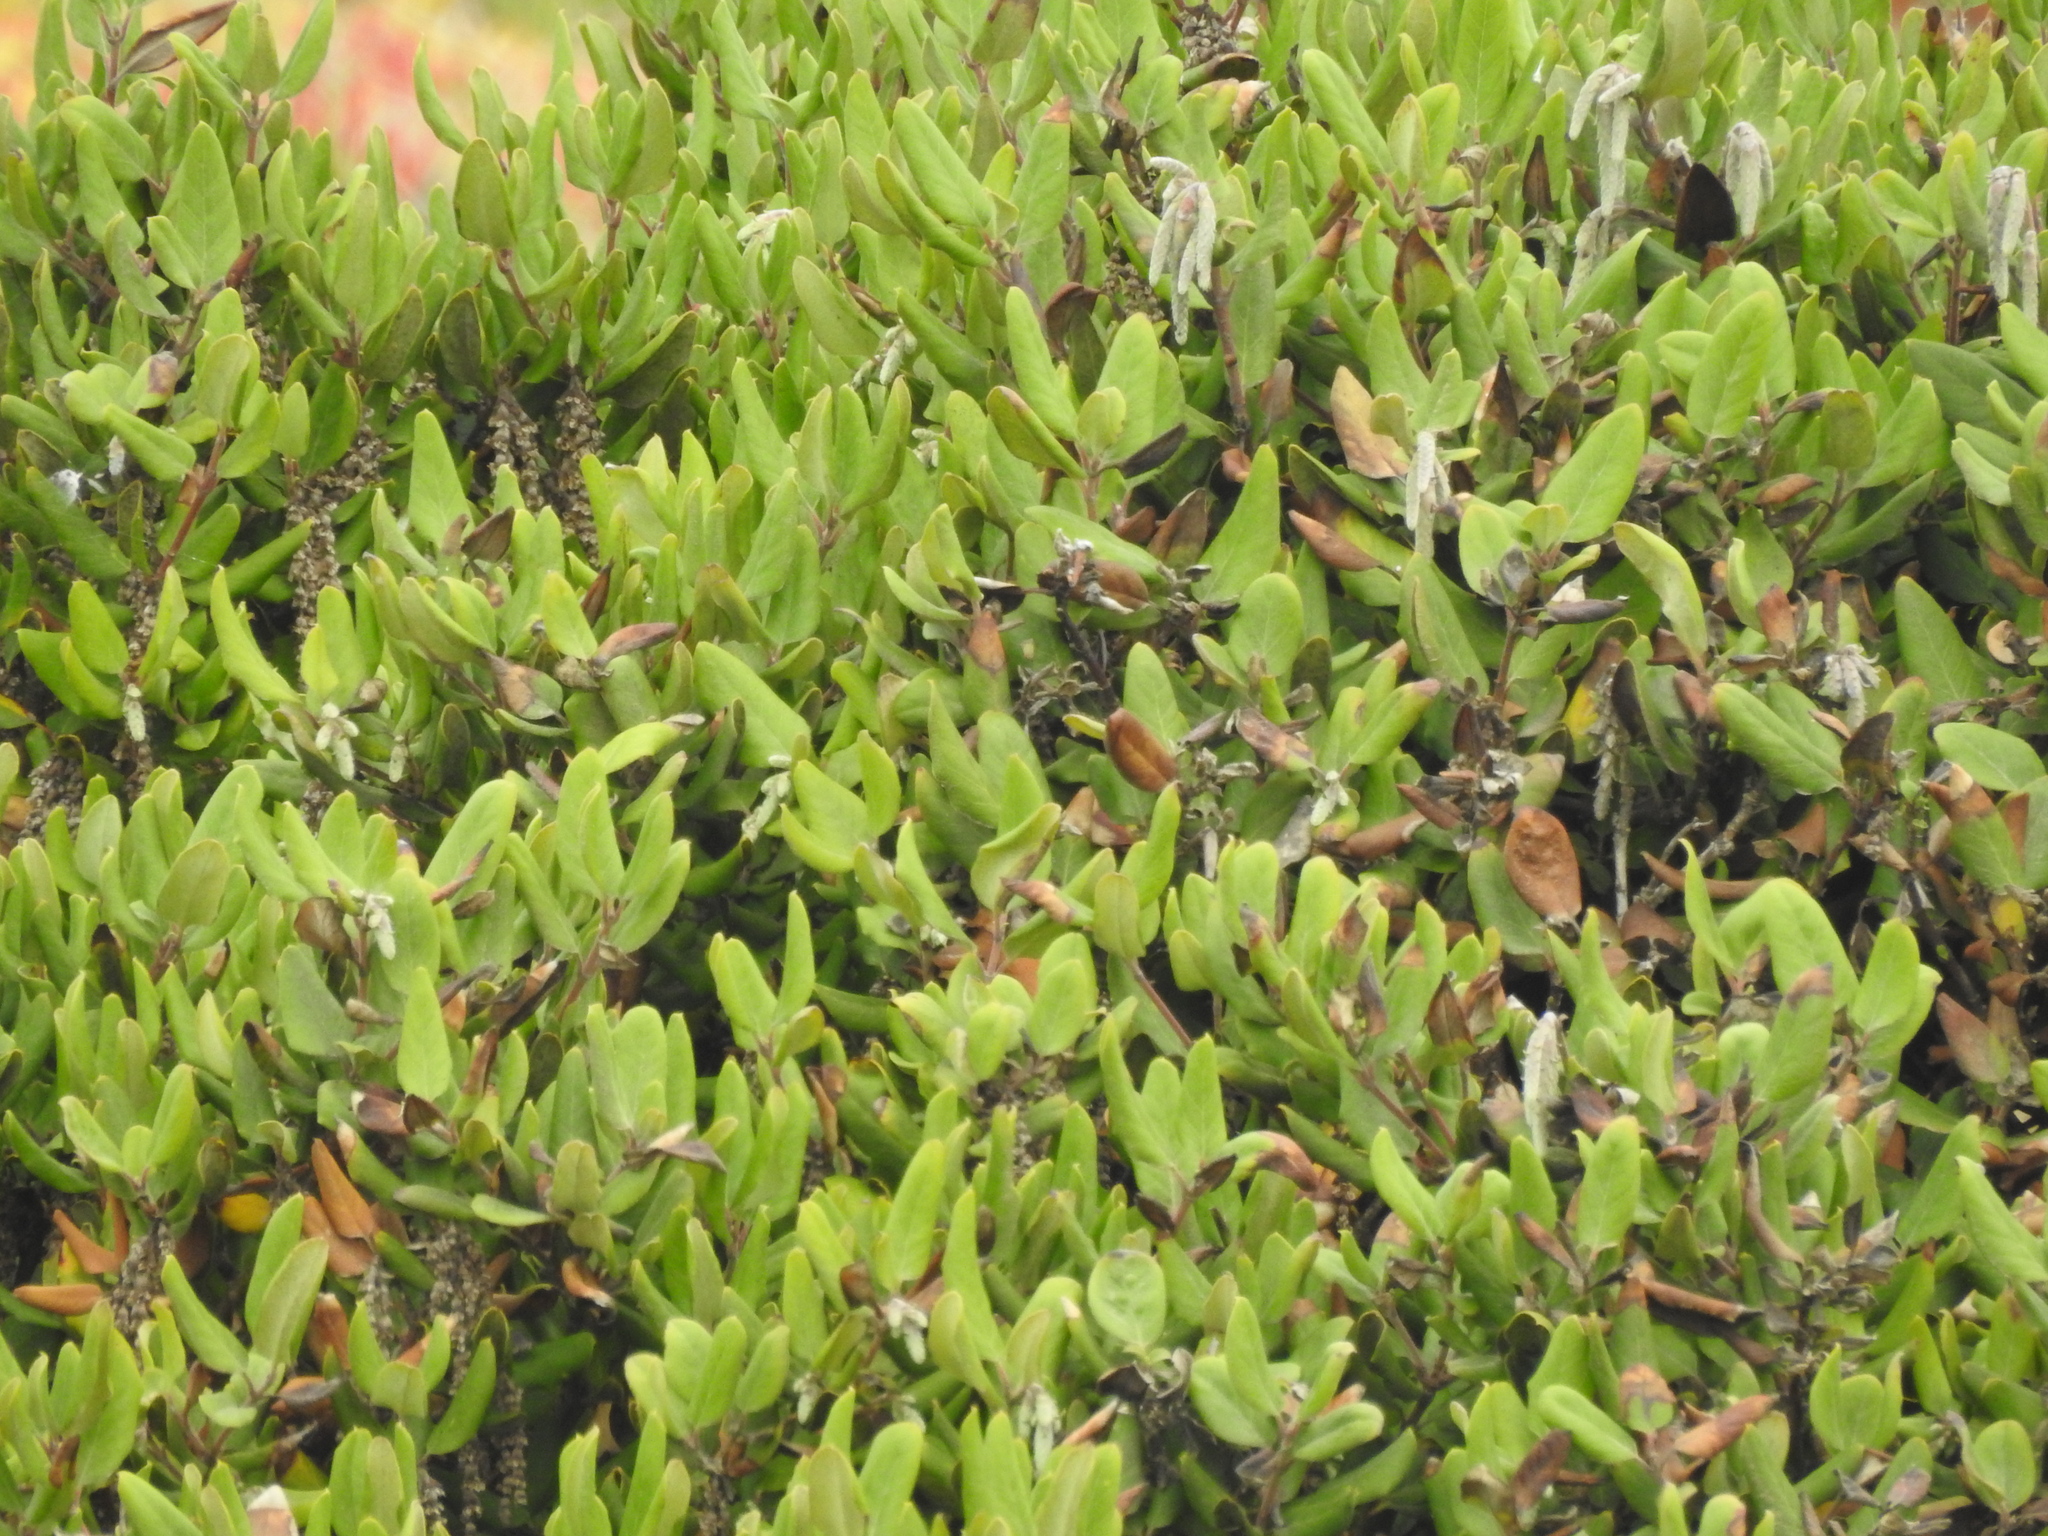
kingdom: Plantae
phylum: Tracheophyta
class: Magnoliopsida
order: Garryales
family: Garryaceae
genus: Garrya
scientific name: Garrya elliptica
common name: Silk-tassel
